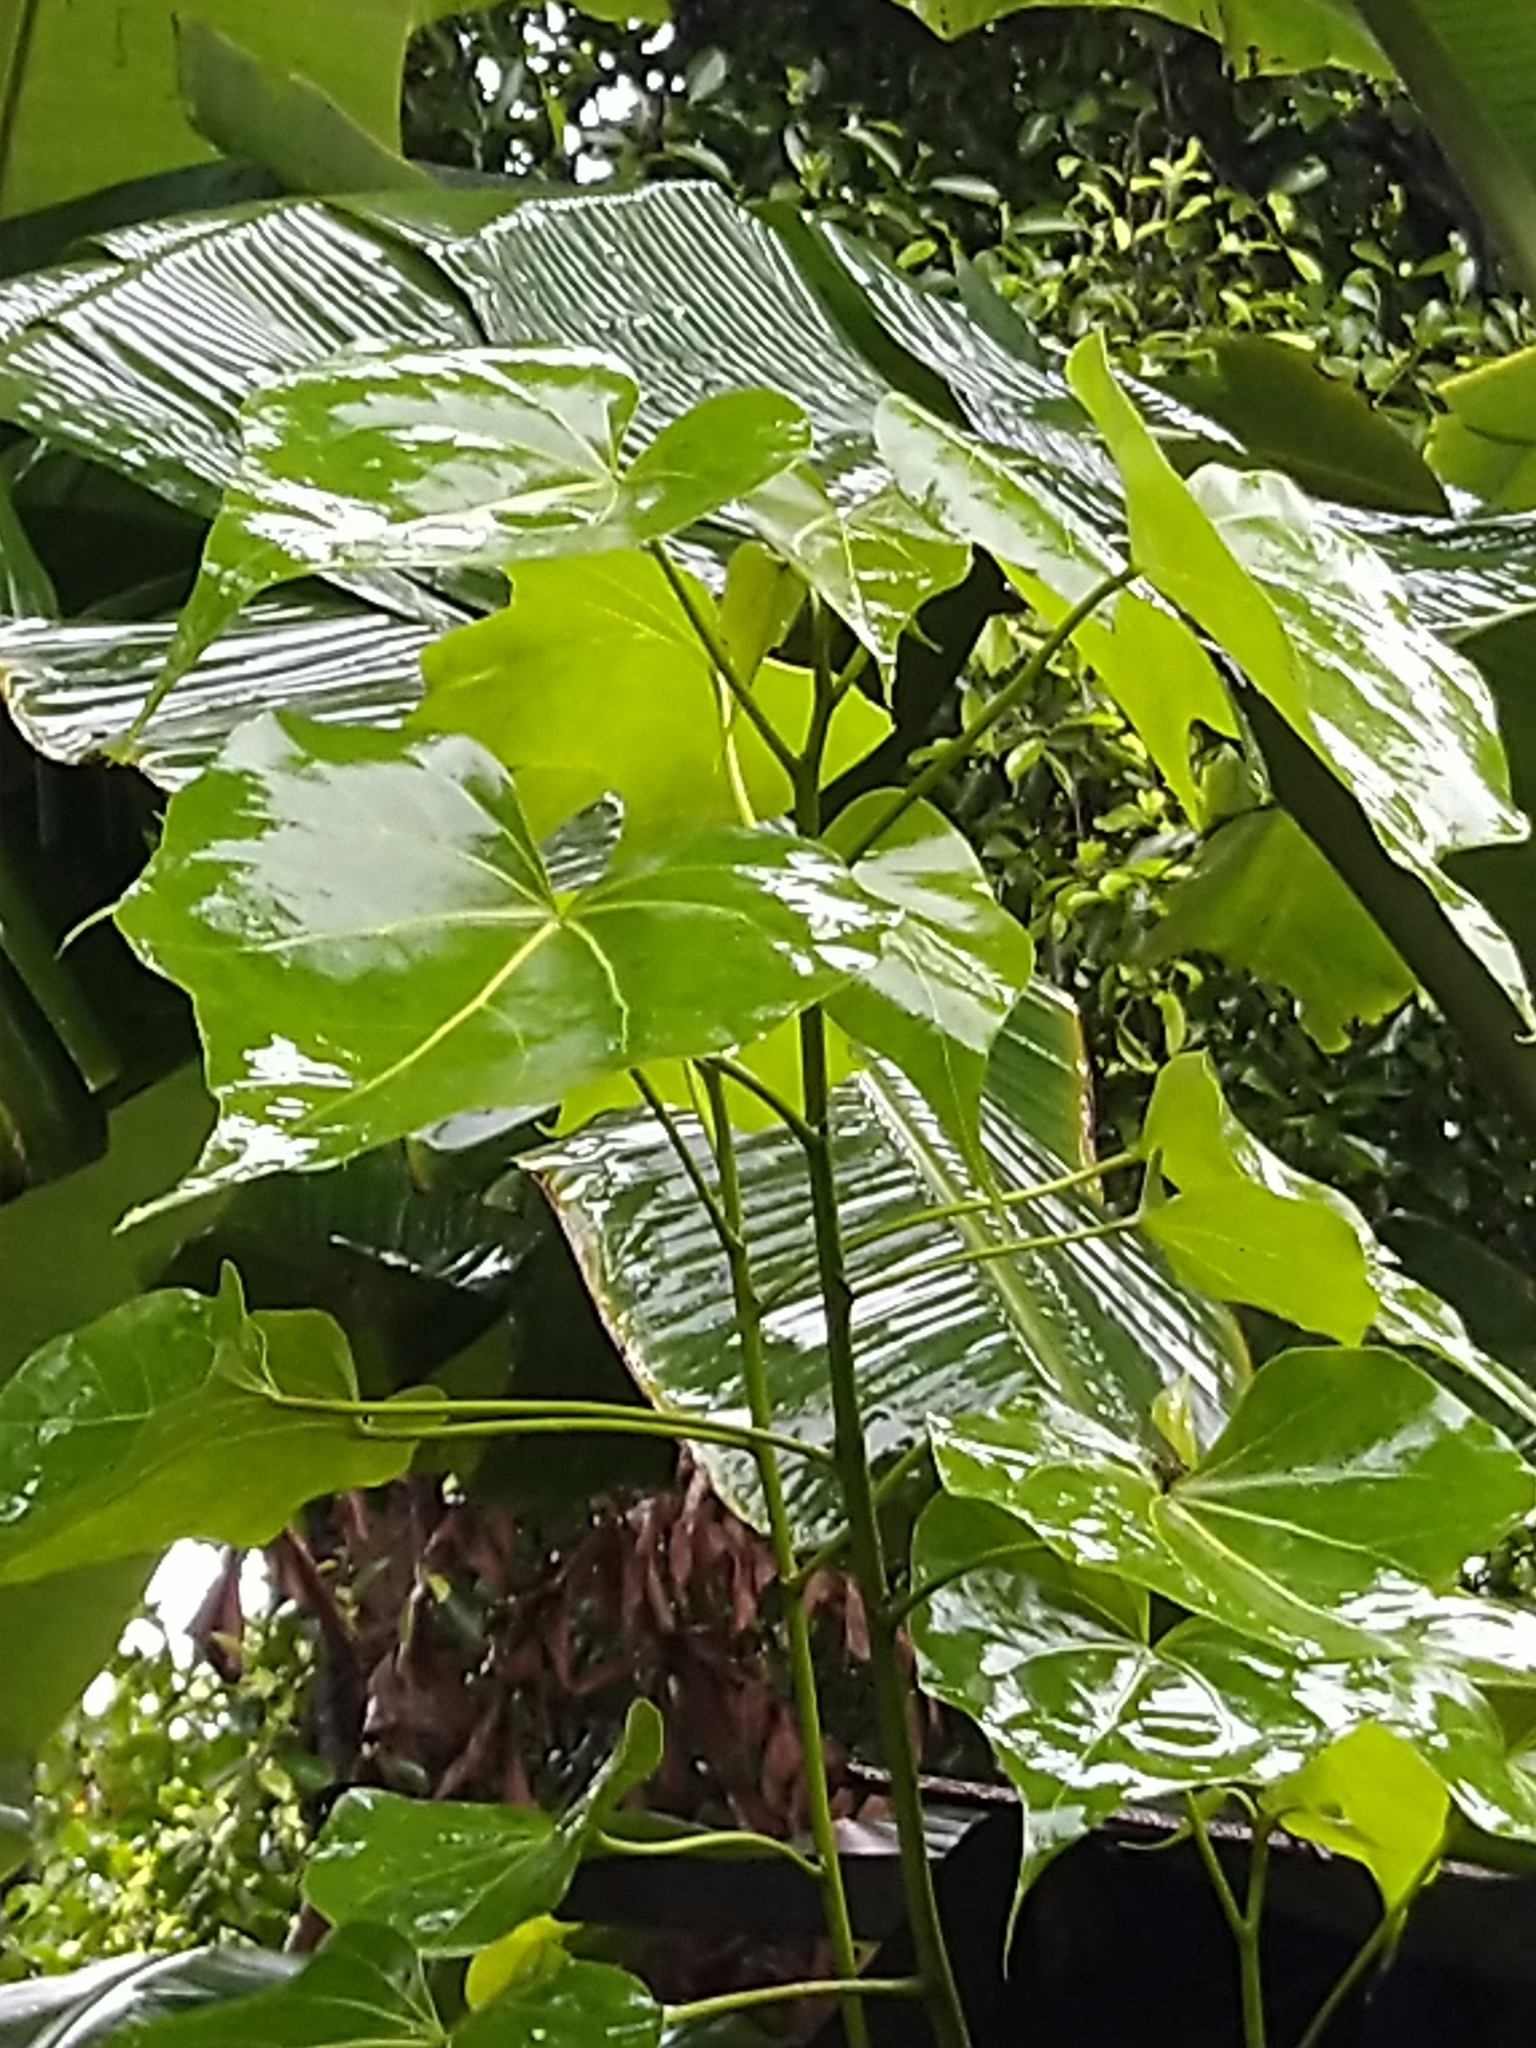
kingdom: Plantae
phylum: Tracheophyta
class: Magnoliopsida
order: Malvales
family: Malvaceae
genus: Thespesia
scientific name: Thespesia populnea
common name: Seaside mahoe
